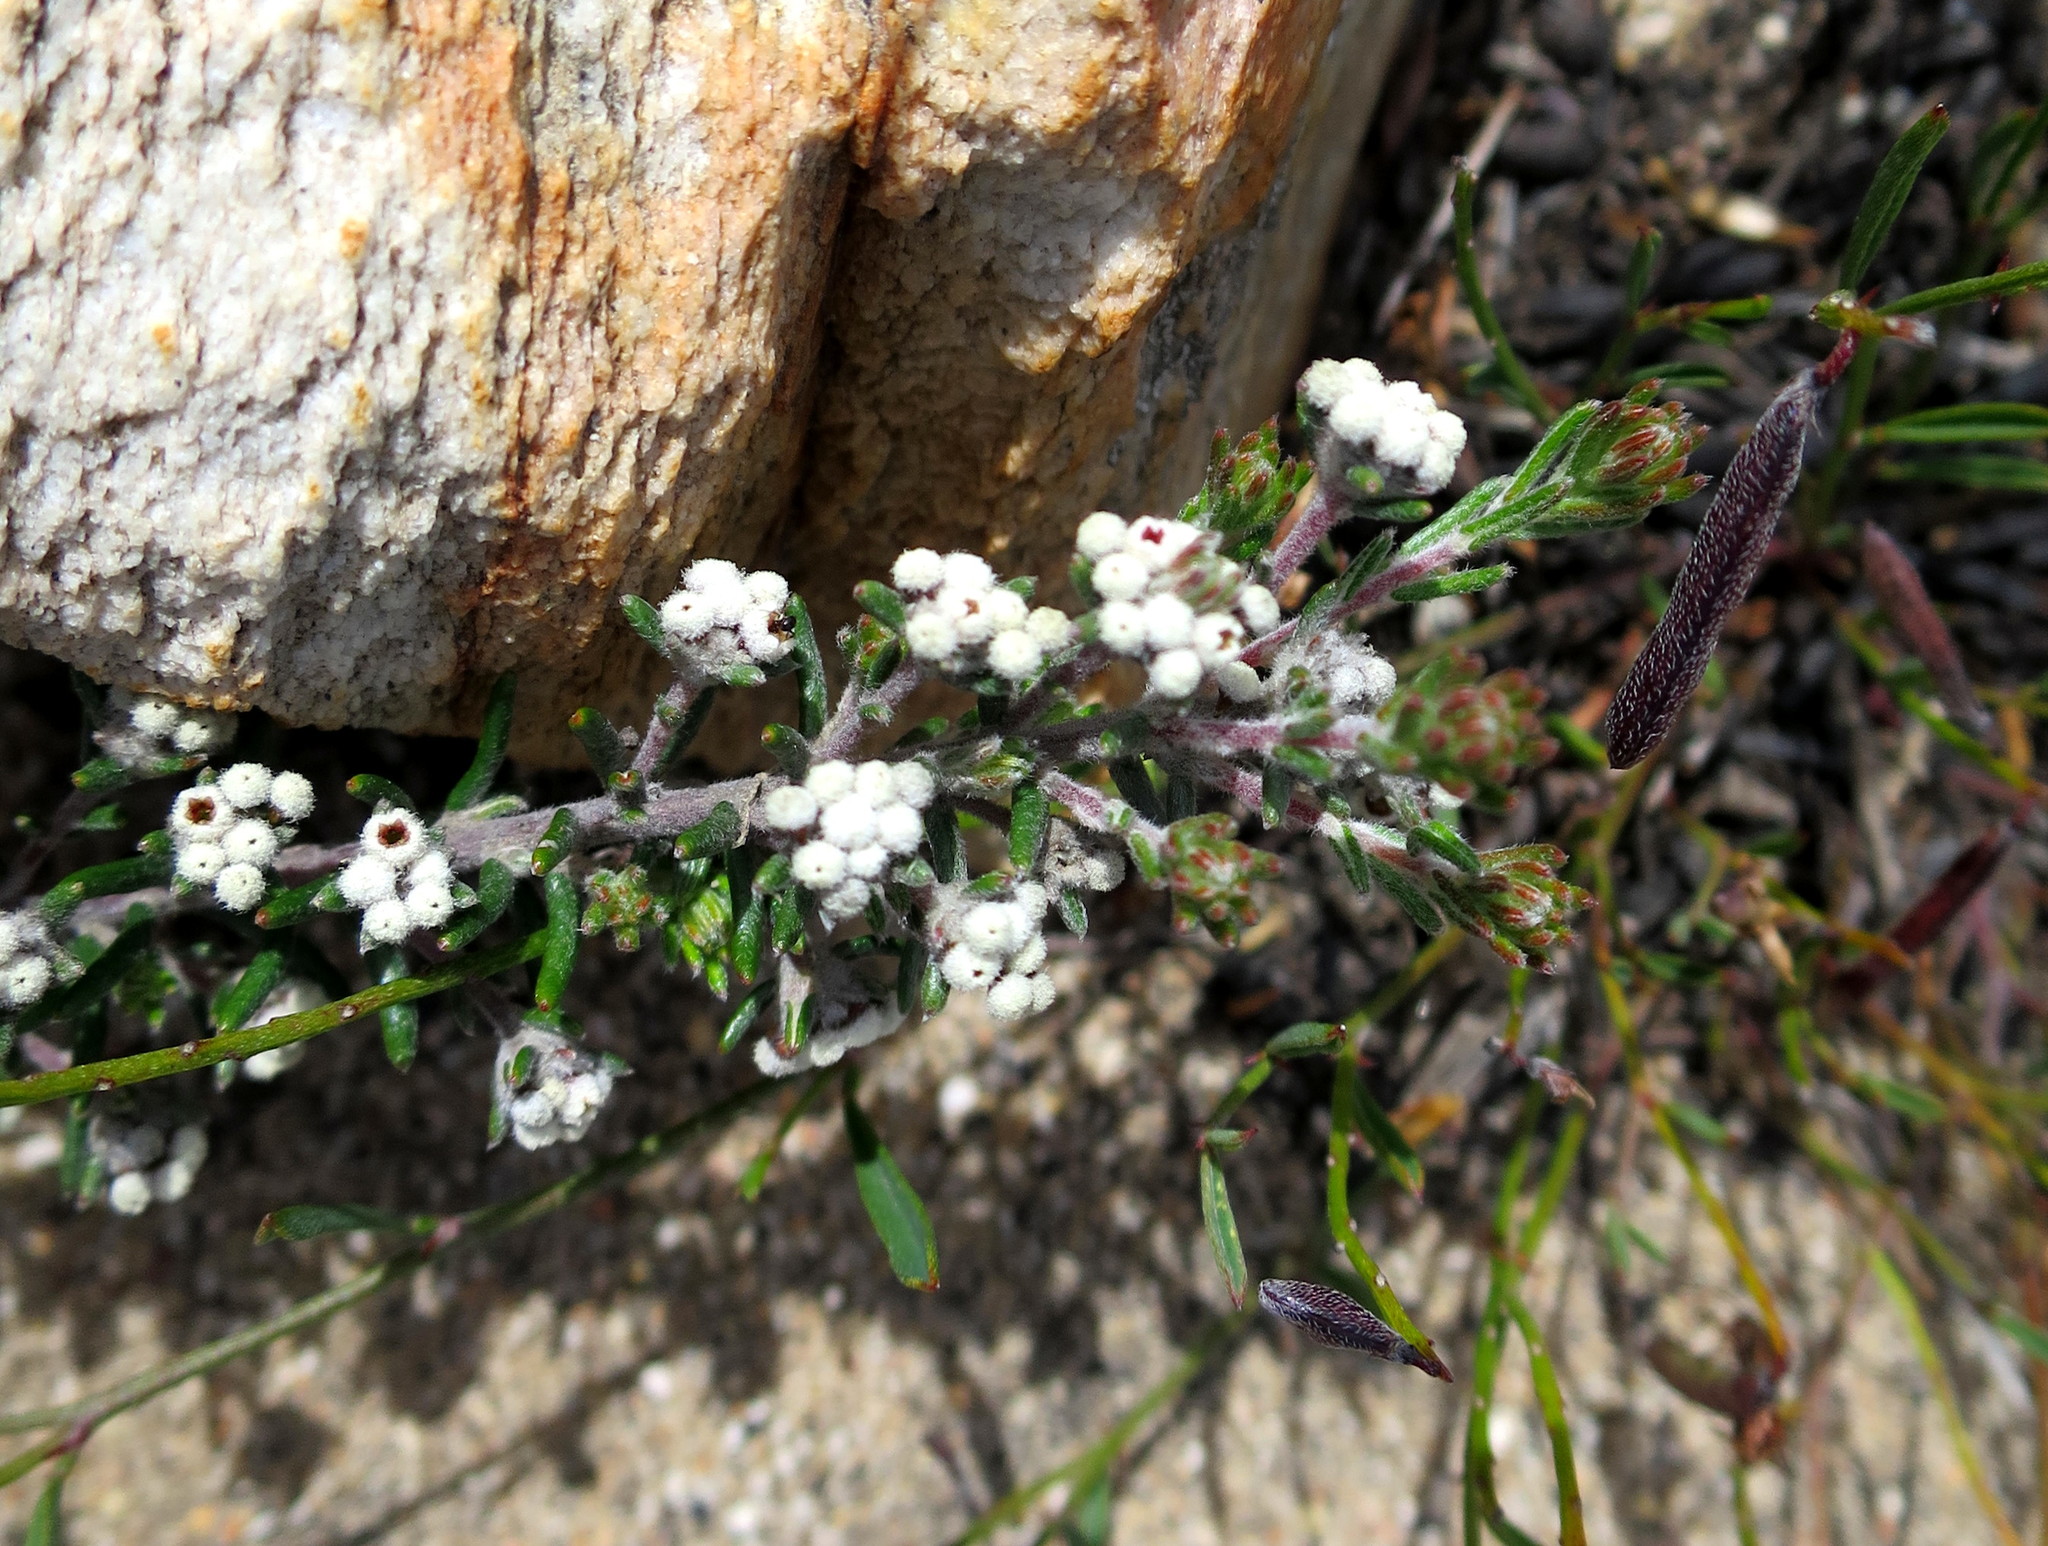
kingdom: Plantae
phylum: Tracheophyta
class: Magnoliopsida
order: Rosales
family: Rhamnaceae
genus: Phylica
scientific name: Phylica lanata
